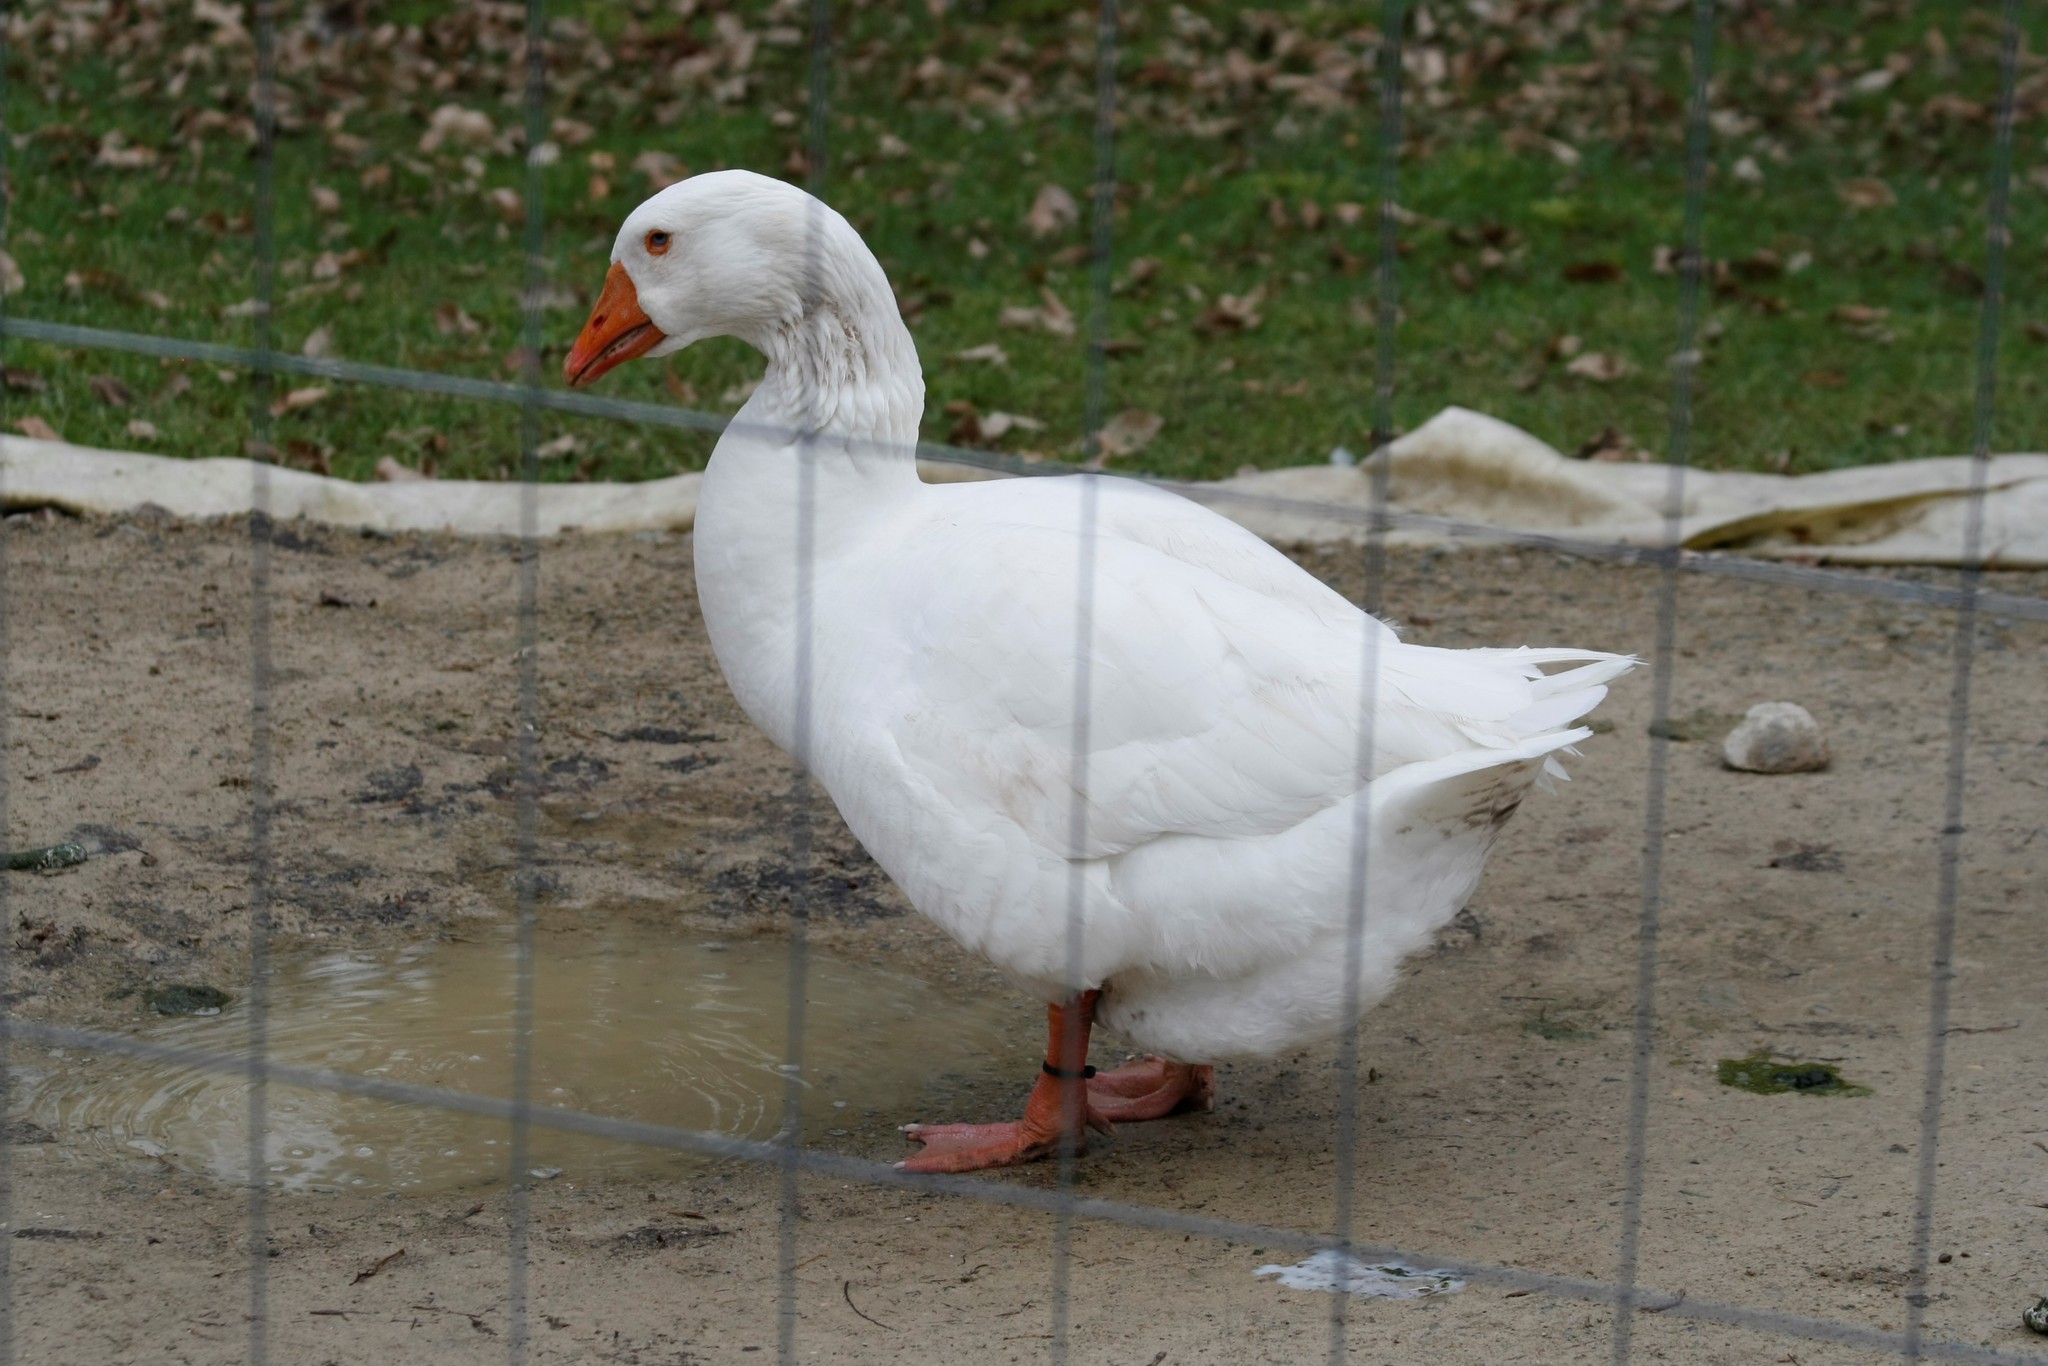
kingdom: Animalia
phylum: Chordata
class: Aves
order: Anseriformes
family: Anatidae
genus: Anser
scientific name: Anser anser
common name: Greylag goose
